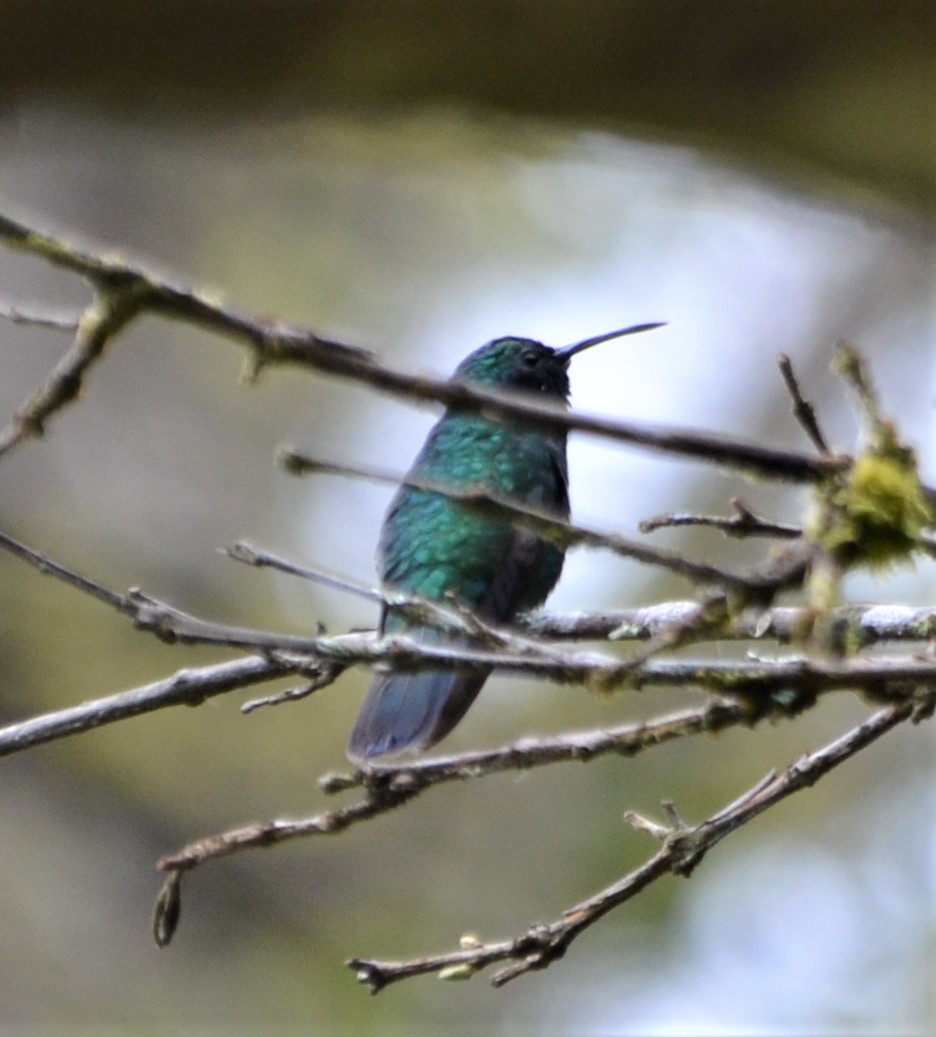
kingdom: Animalia
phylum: Chordata
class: Aves
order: Apodiformes
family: Trochilidae
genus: Anthracothorax
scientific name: Anthracothorax prevostii
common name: Green-breasted mango
